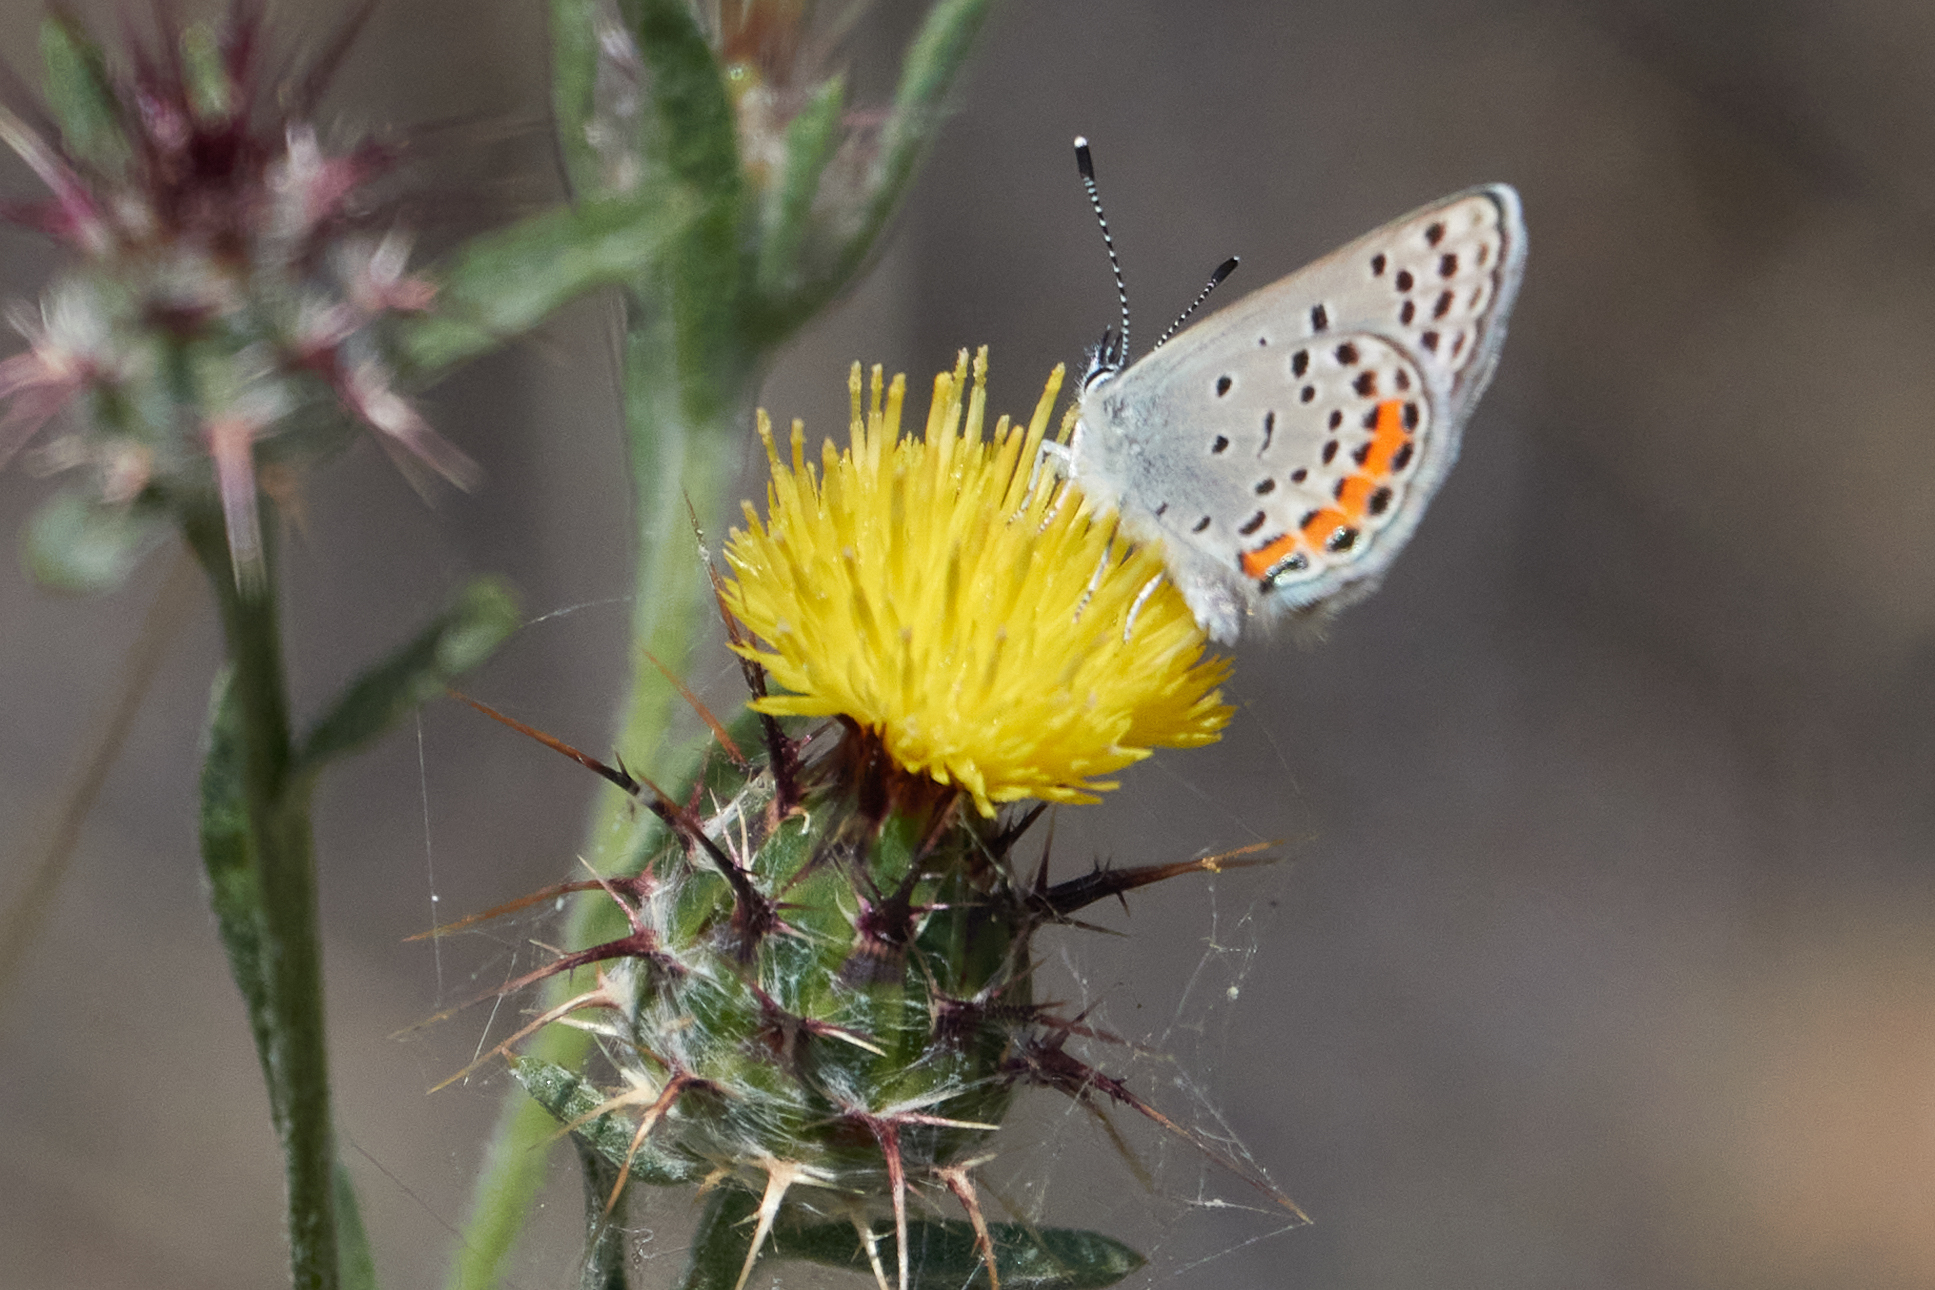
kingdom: Animalia
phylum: Arthropoda
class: Insecta
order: Lepidoptera
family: Lycaenidae
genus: Icaricia
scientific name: Icaricia acmon
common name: Acmon blue
